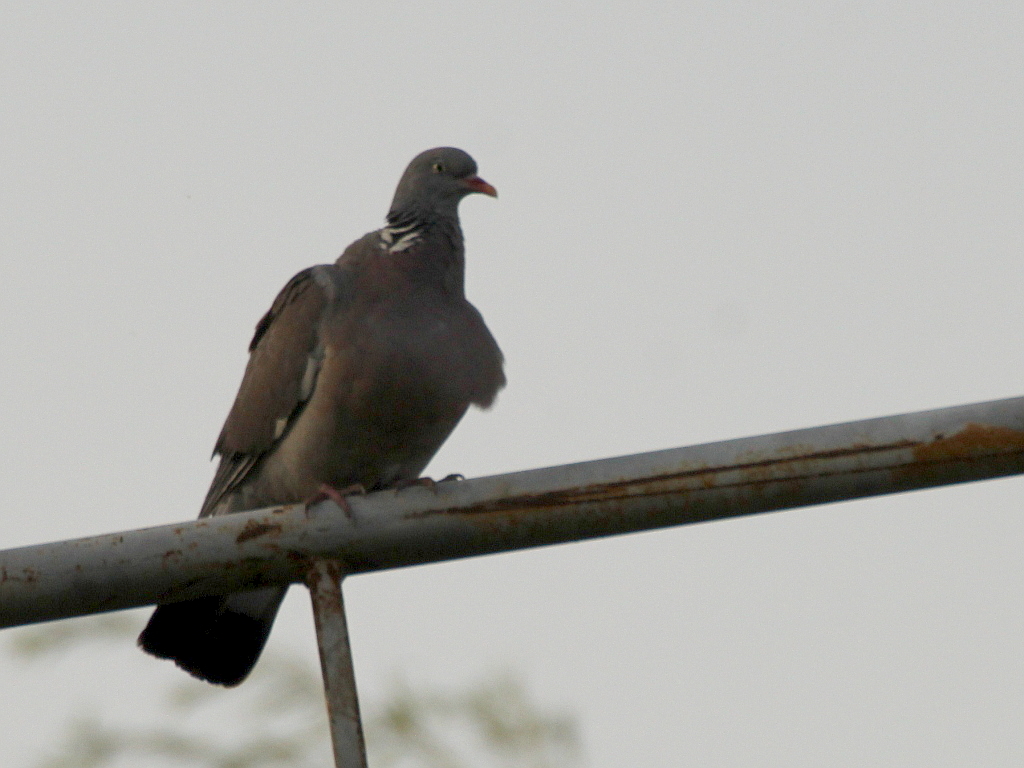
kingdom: Animalia
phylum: Chordata
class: Aves
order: Columbiformes
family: Columbidae
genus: Columba
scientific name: Columba palumbus
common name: Common wood pigeon
